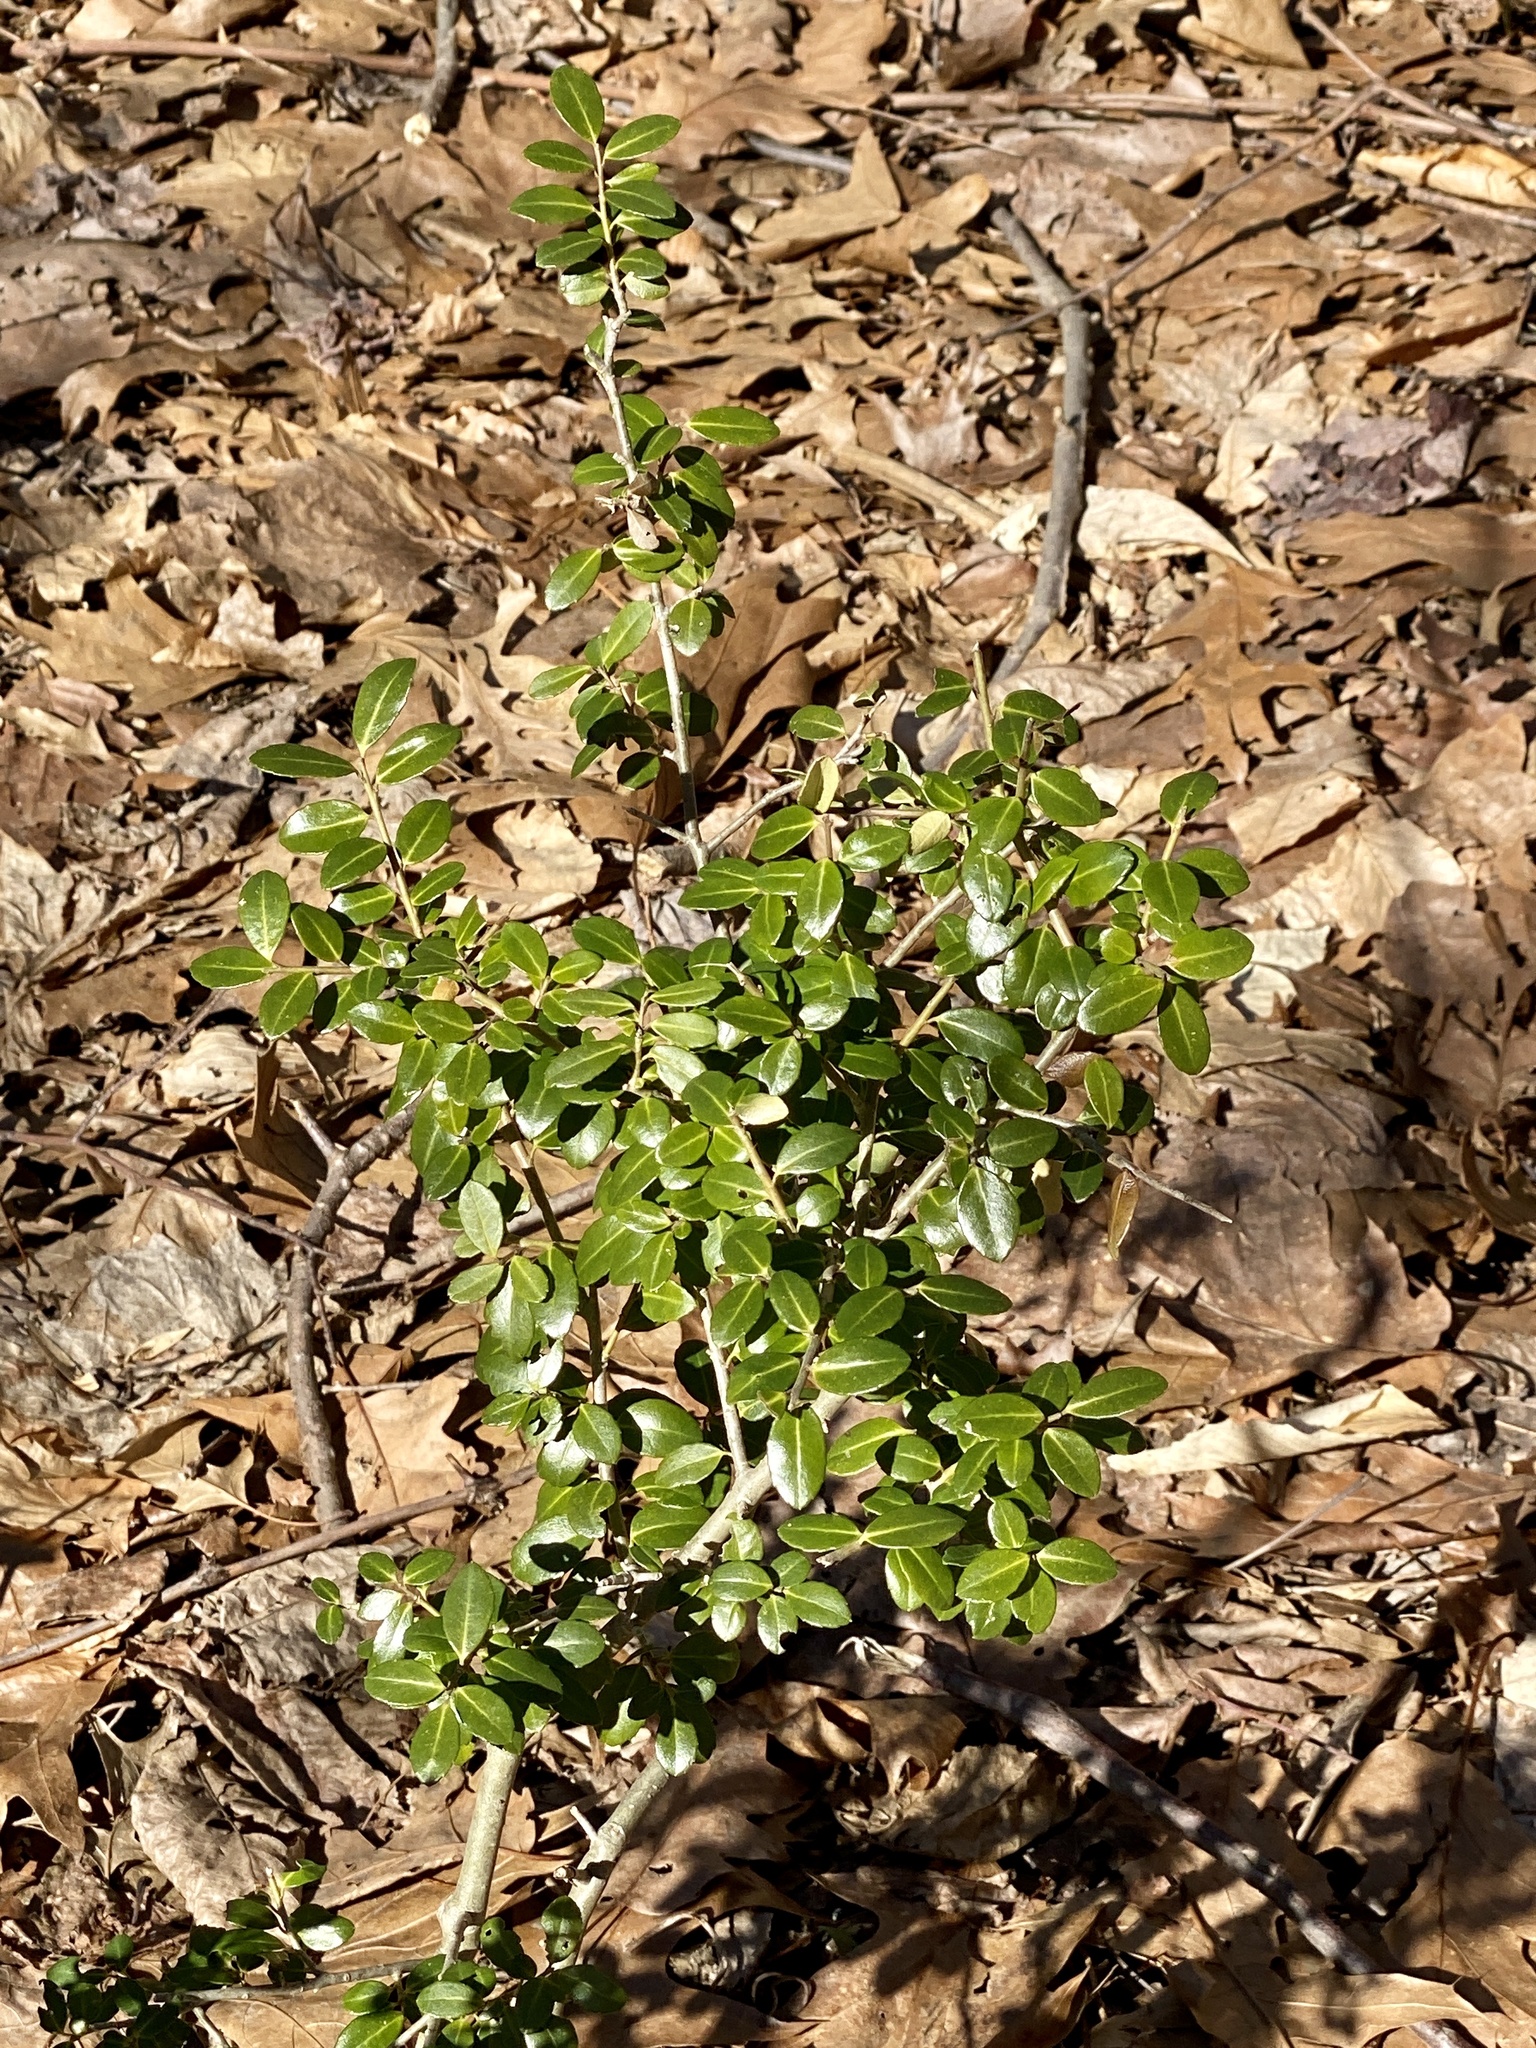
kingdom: Plantae
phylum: Tracheophyta
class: Magnoliopsida
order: Aquifoliales
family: Aquifoliaceae
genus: Ilex
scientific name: Ilex crenata
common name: Japanese holly
